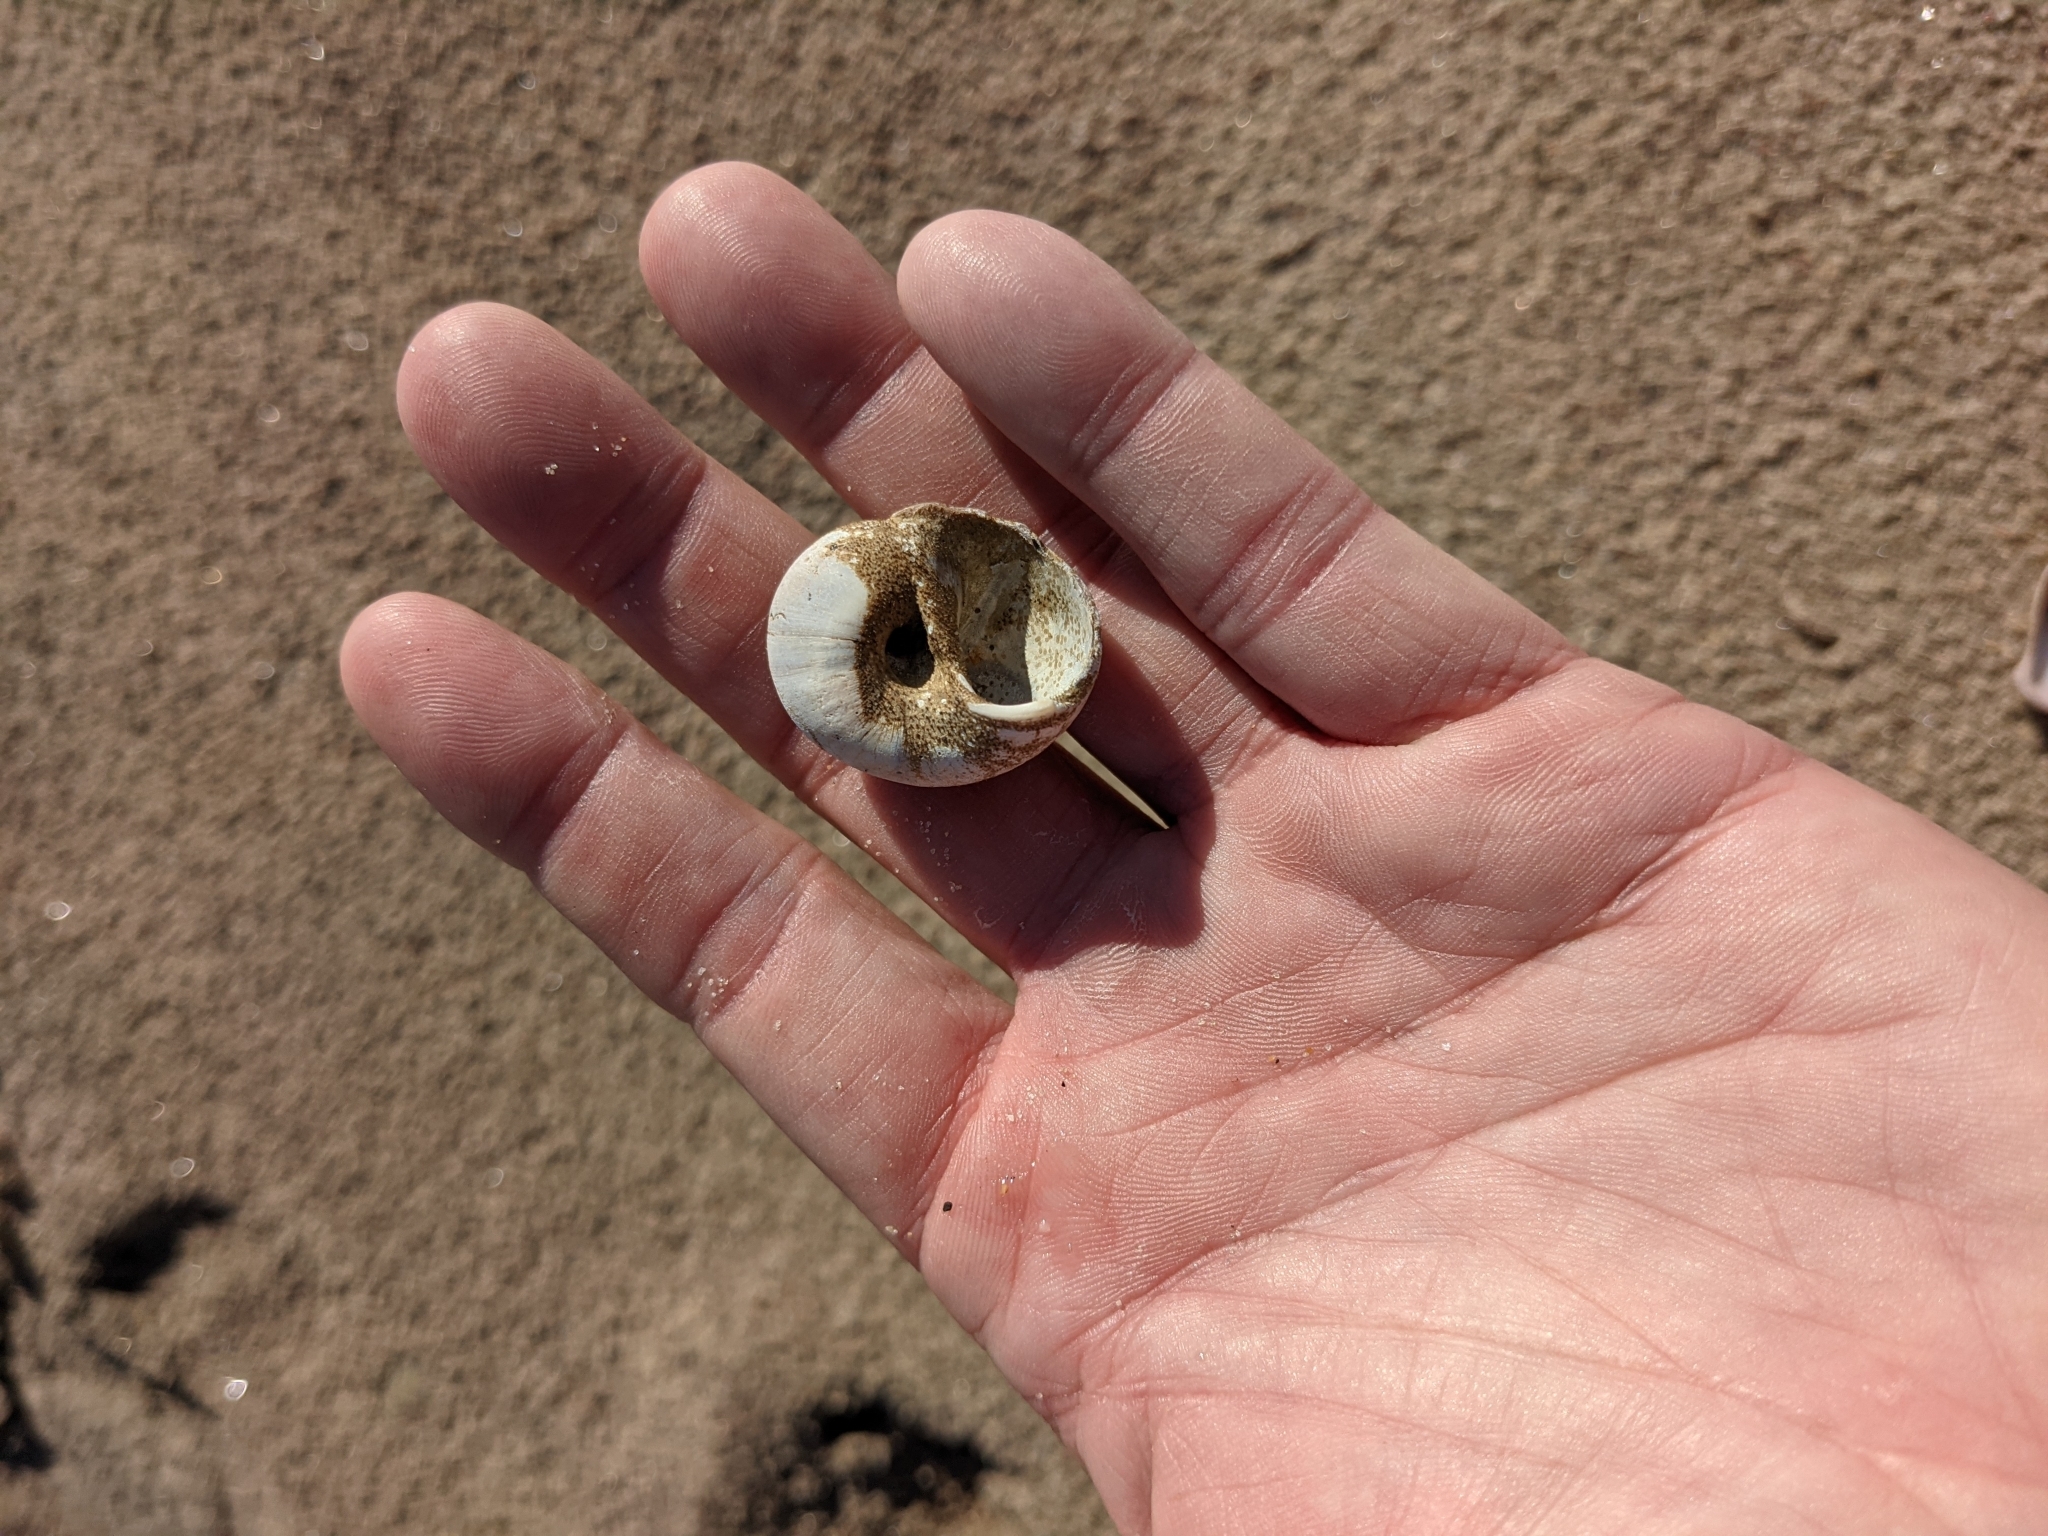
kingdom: Animalia
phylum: Mollusca
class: Gastropoda
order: Littorinimorpha
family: Naticidae
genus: Euspira
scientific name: Euspira heros
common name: Common northern moonsnail
